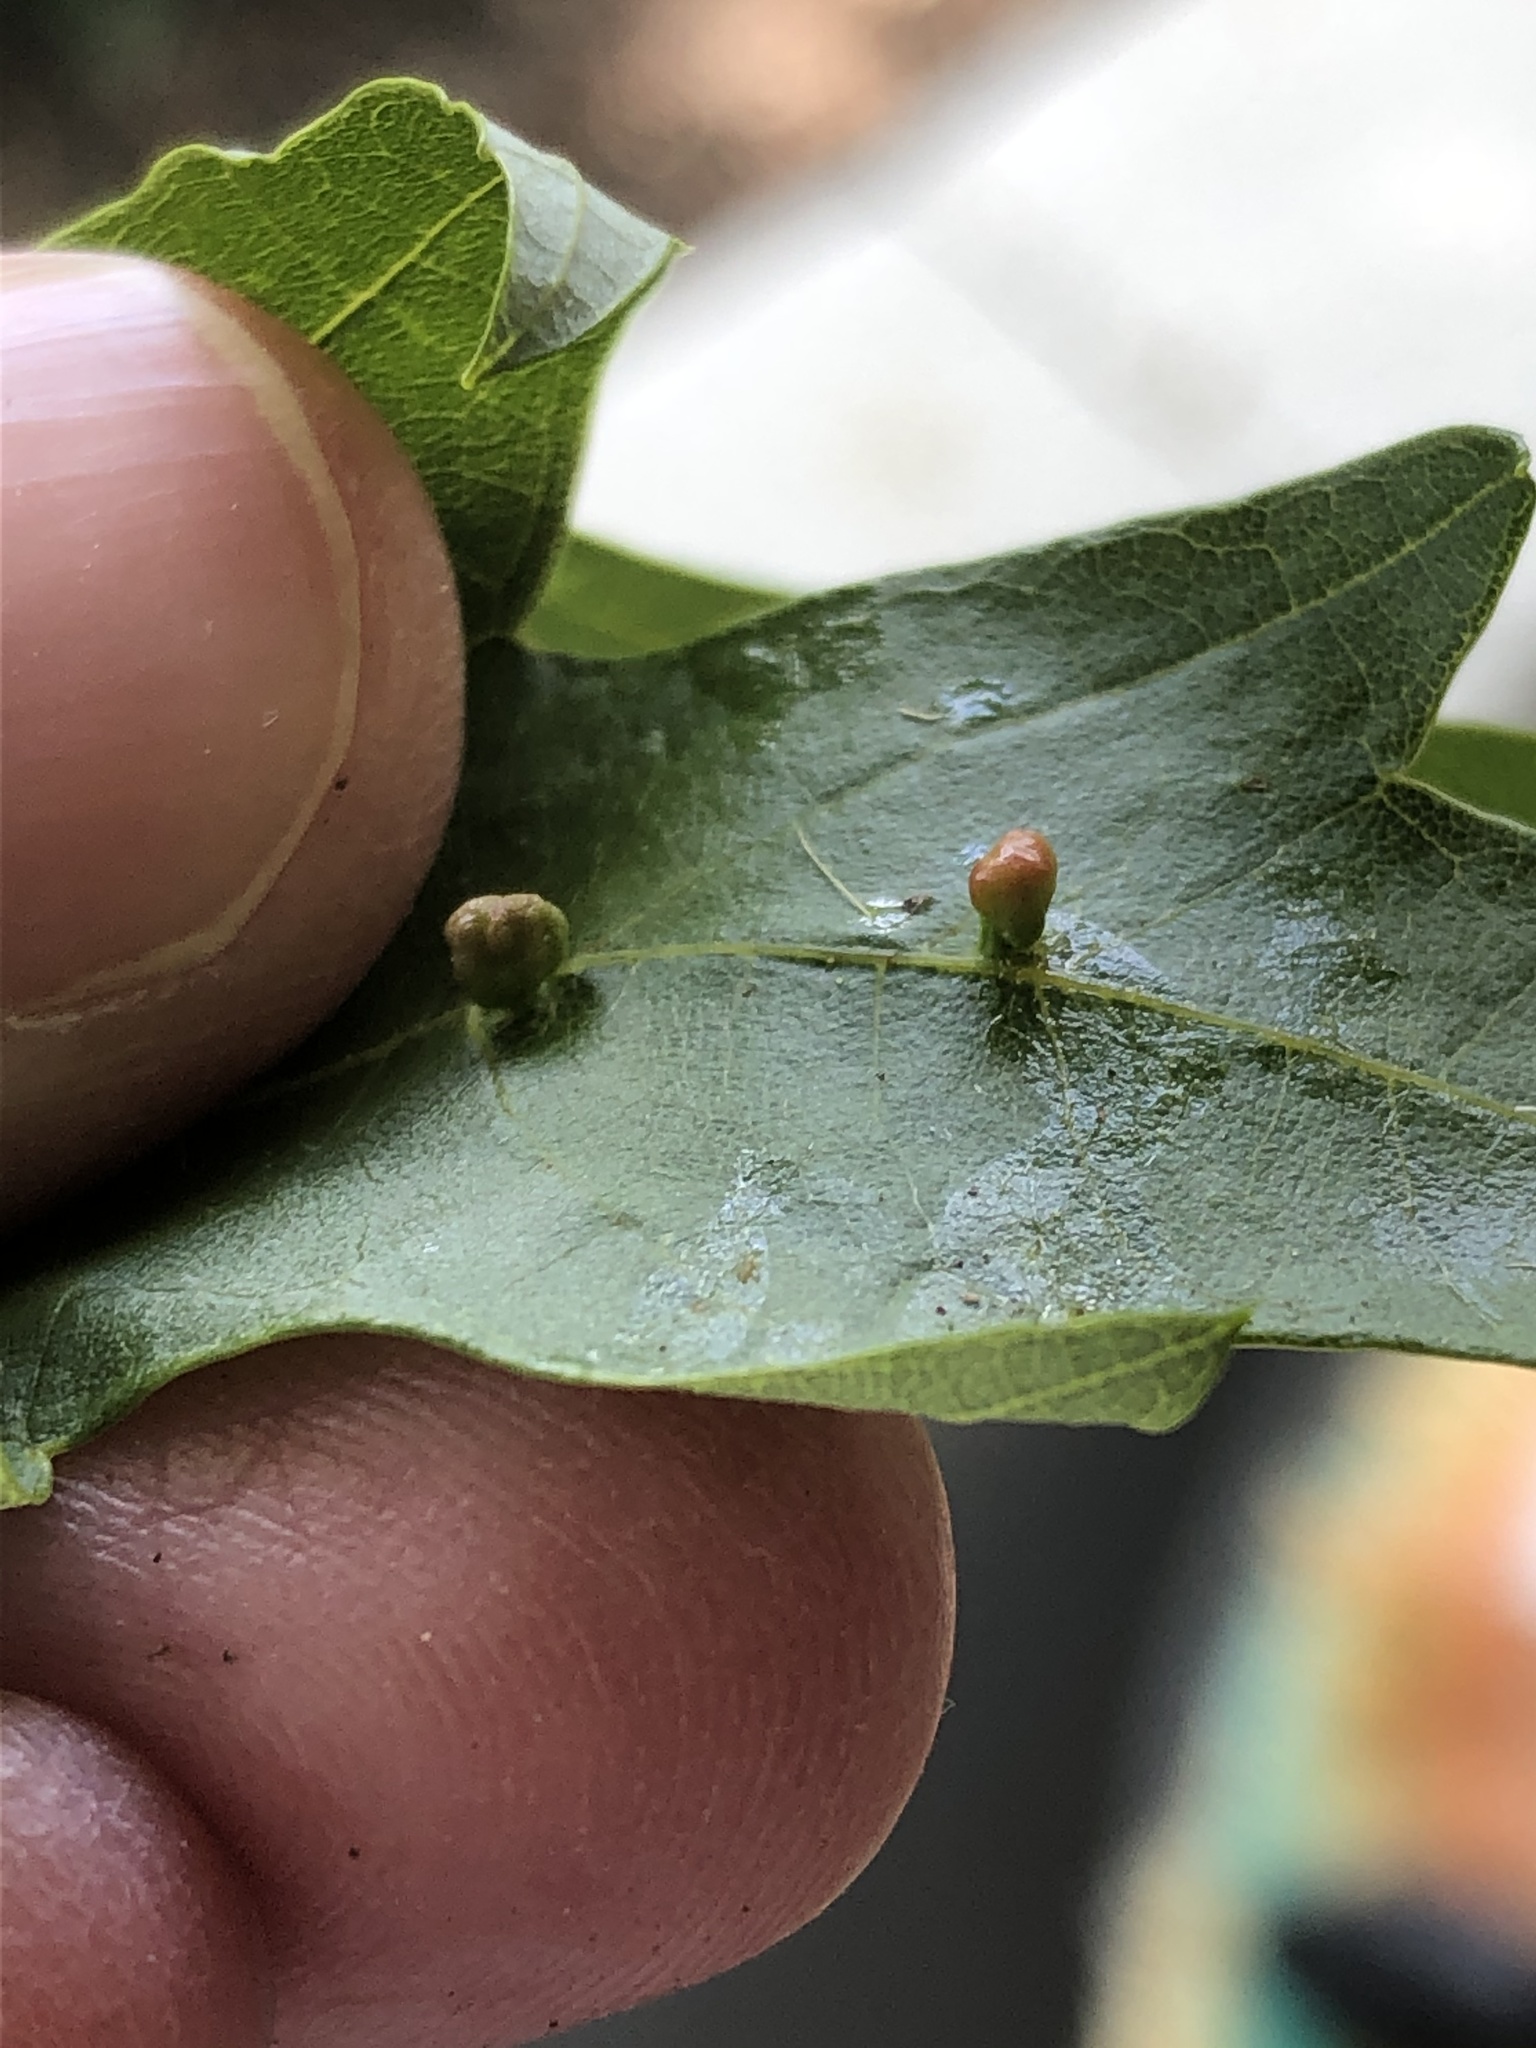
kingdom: Animalia
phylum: Arthropoda
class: Arachnida
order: Trombidiformes
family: Eriophyidae
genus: Vasates
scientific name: Vasates quadripedes
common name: Maple bladder gall mite
